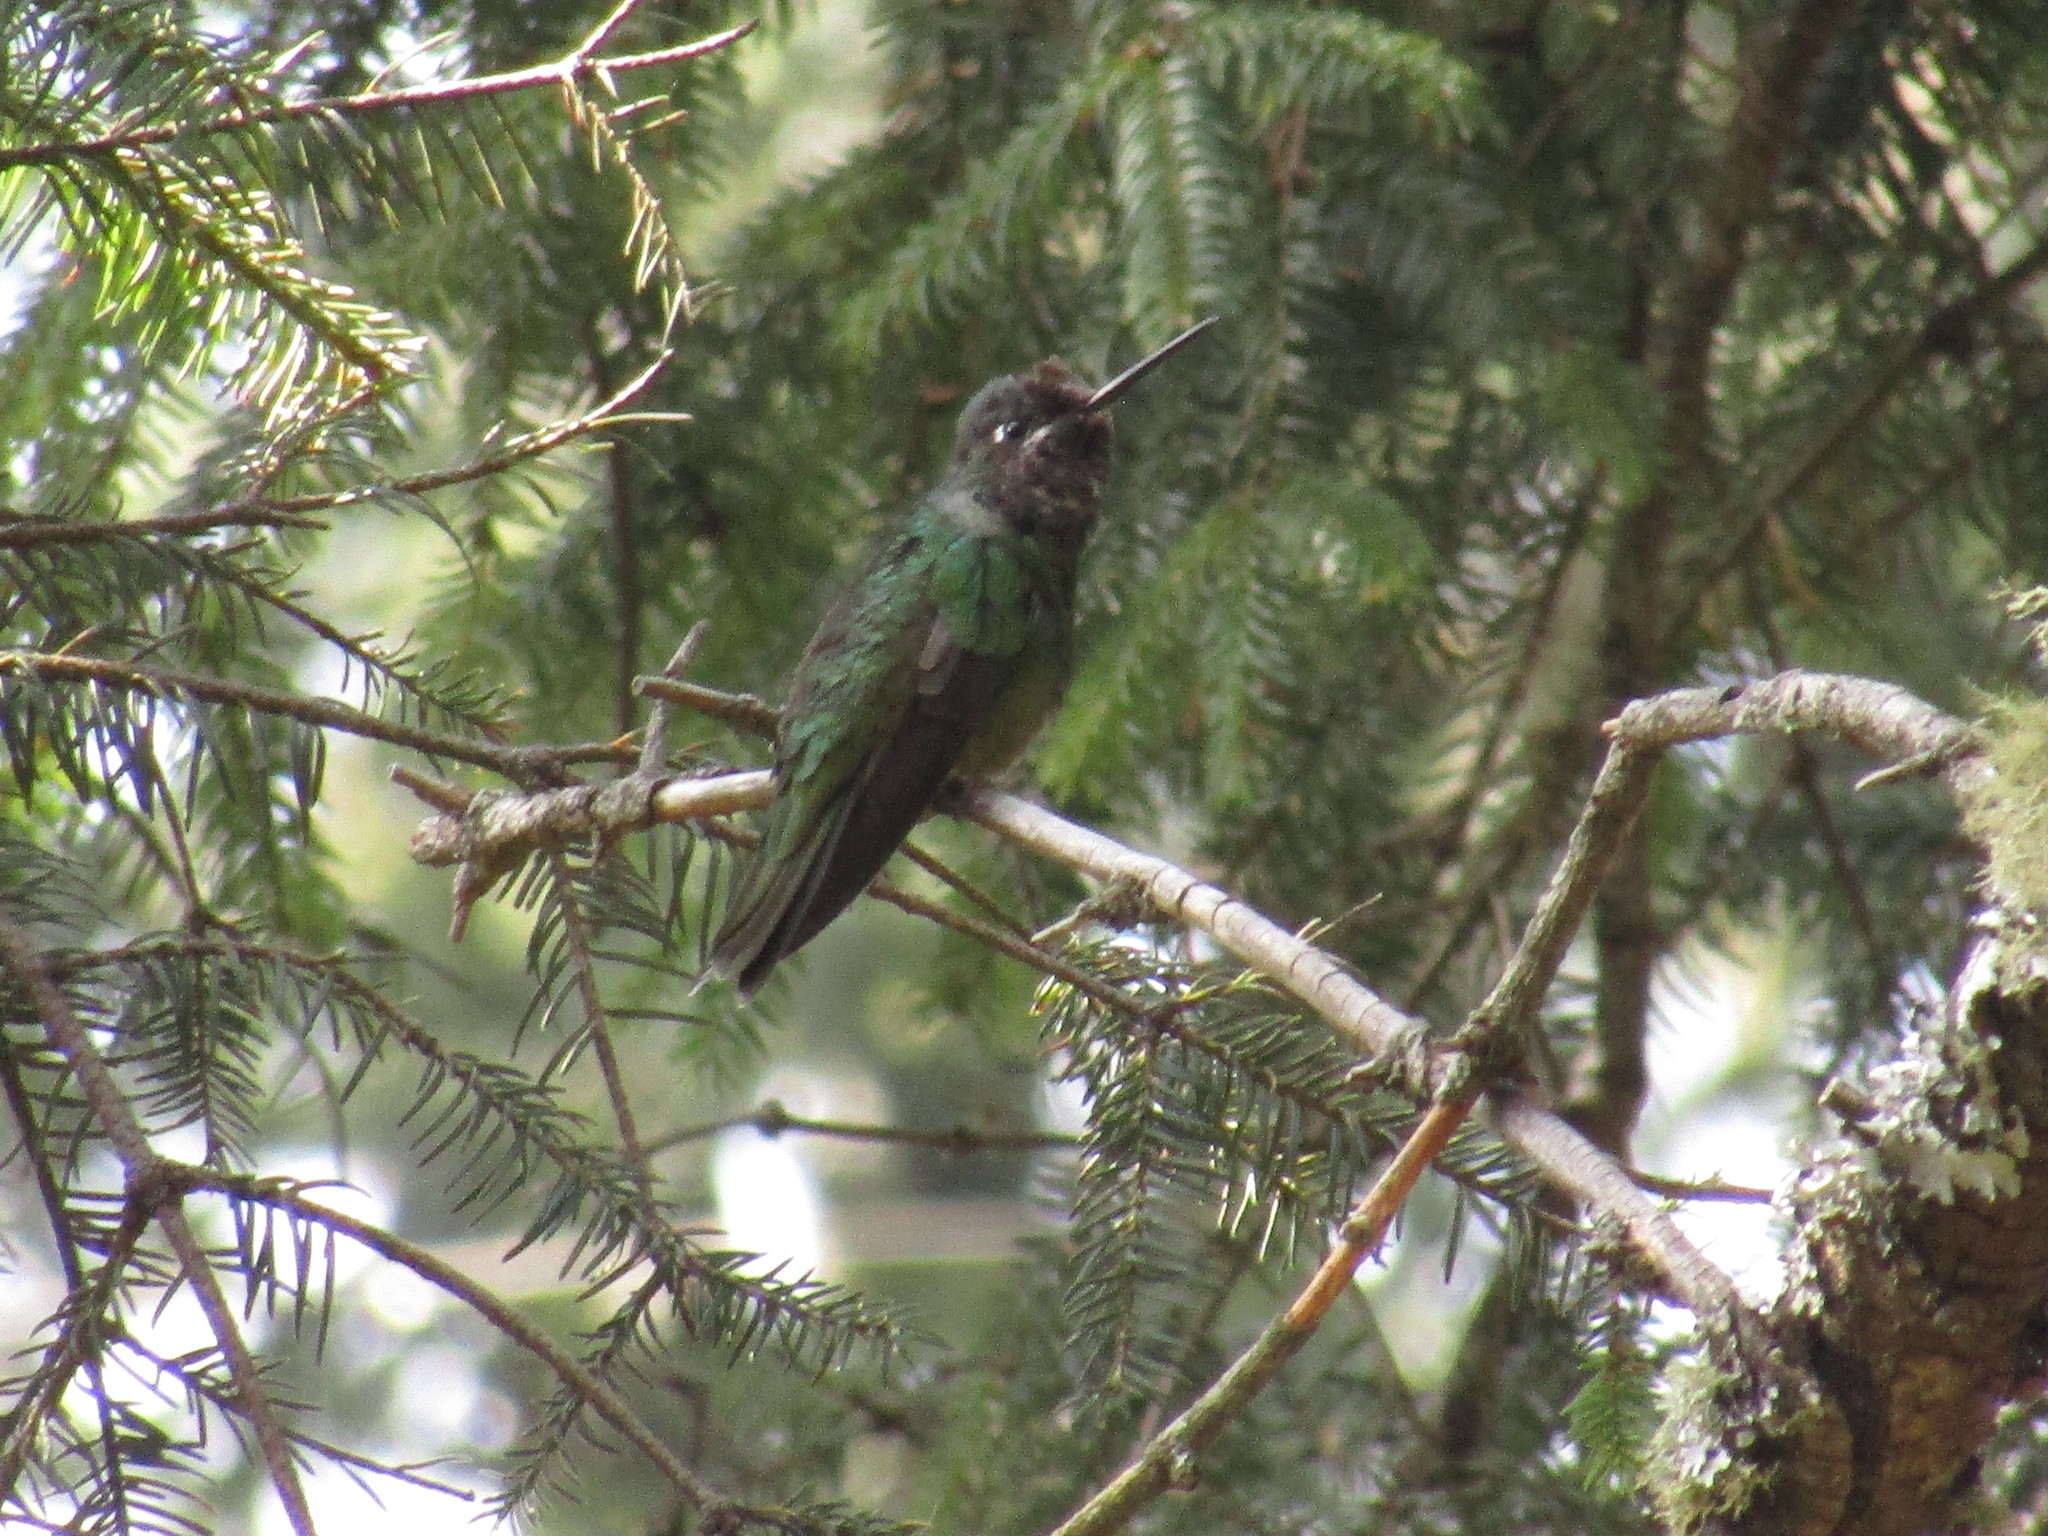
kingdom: Animalia
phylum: Chordata
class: Aves
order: Apodiformes
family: Trochilidae
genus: Eugenes
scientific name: Eugenes fulgens
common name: Magnificent hummingbird
